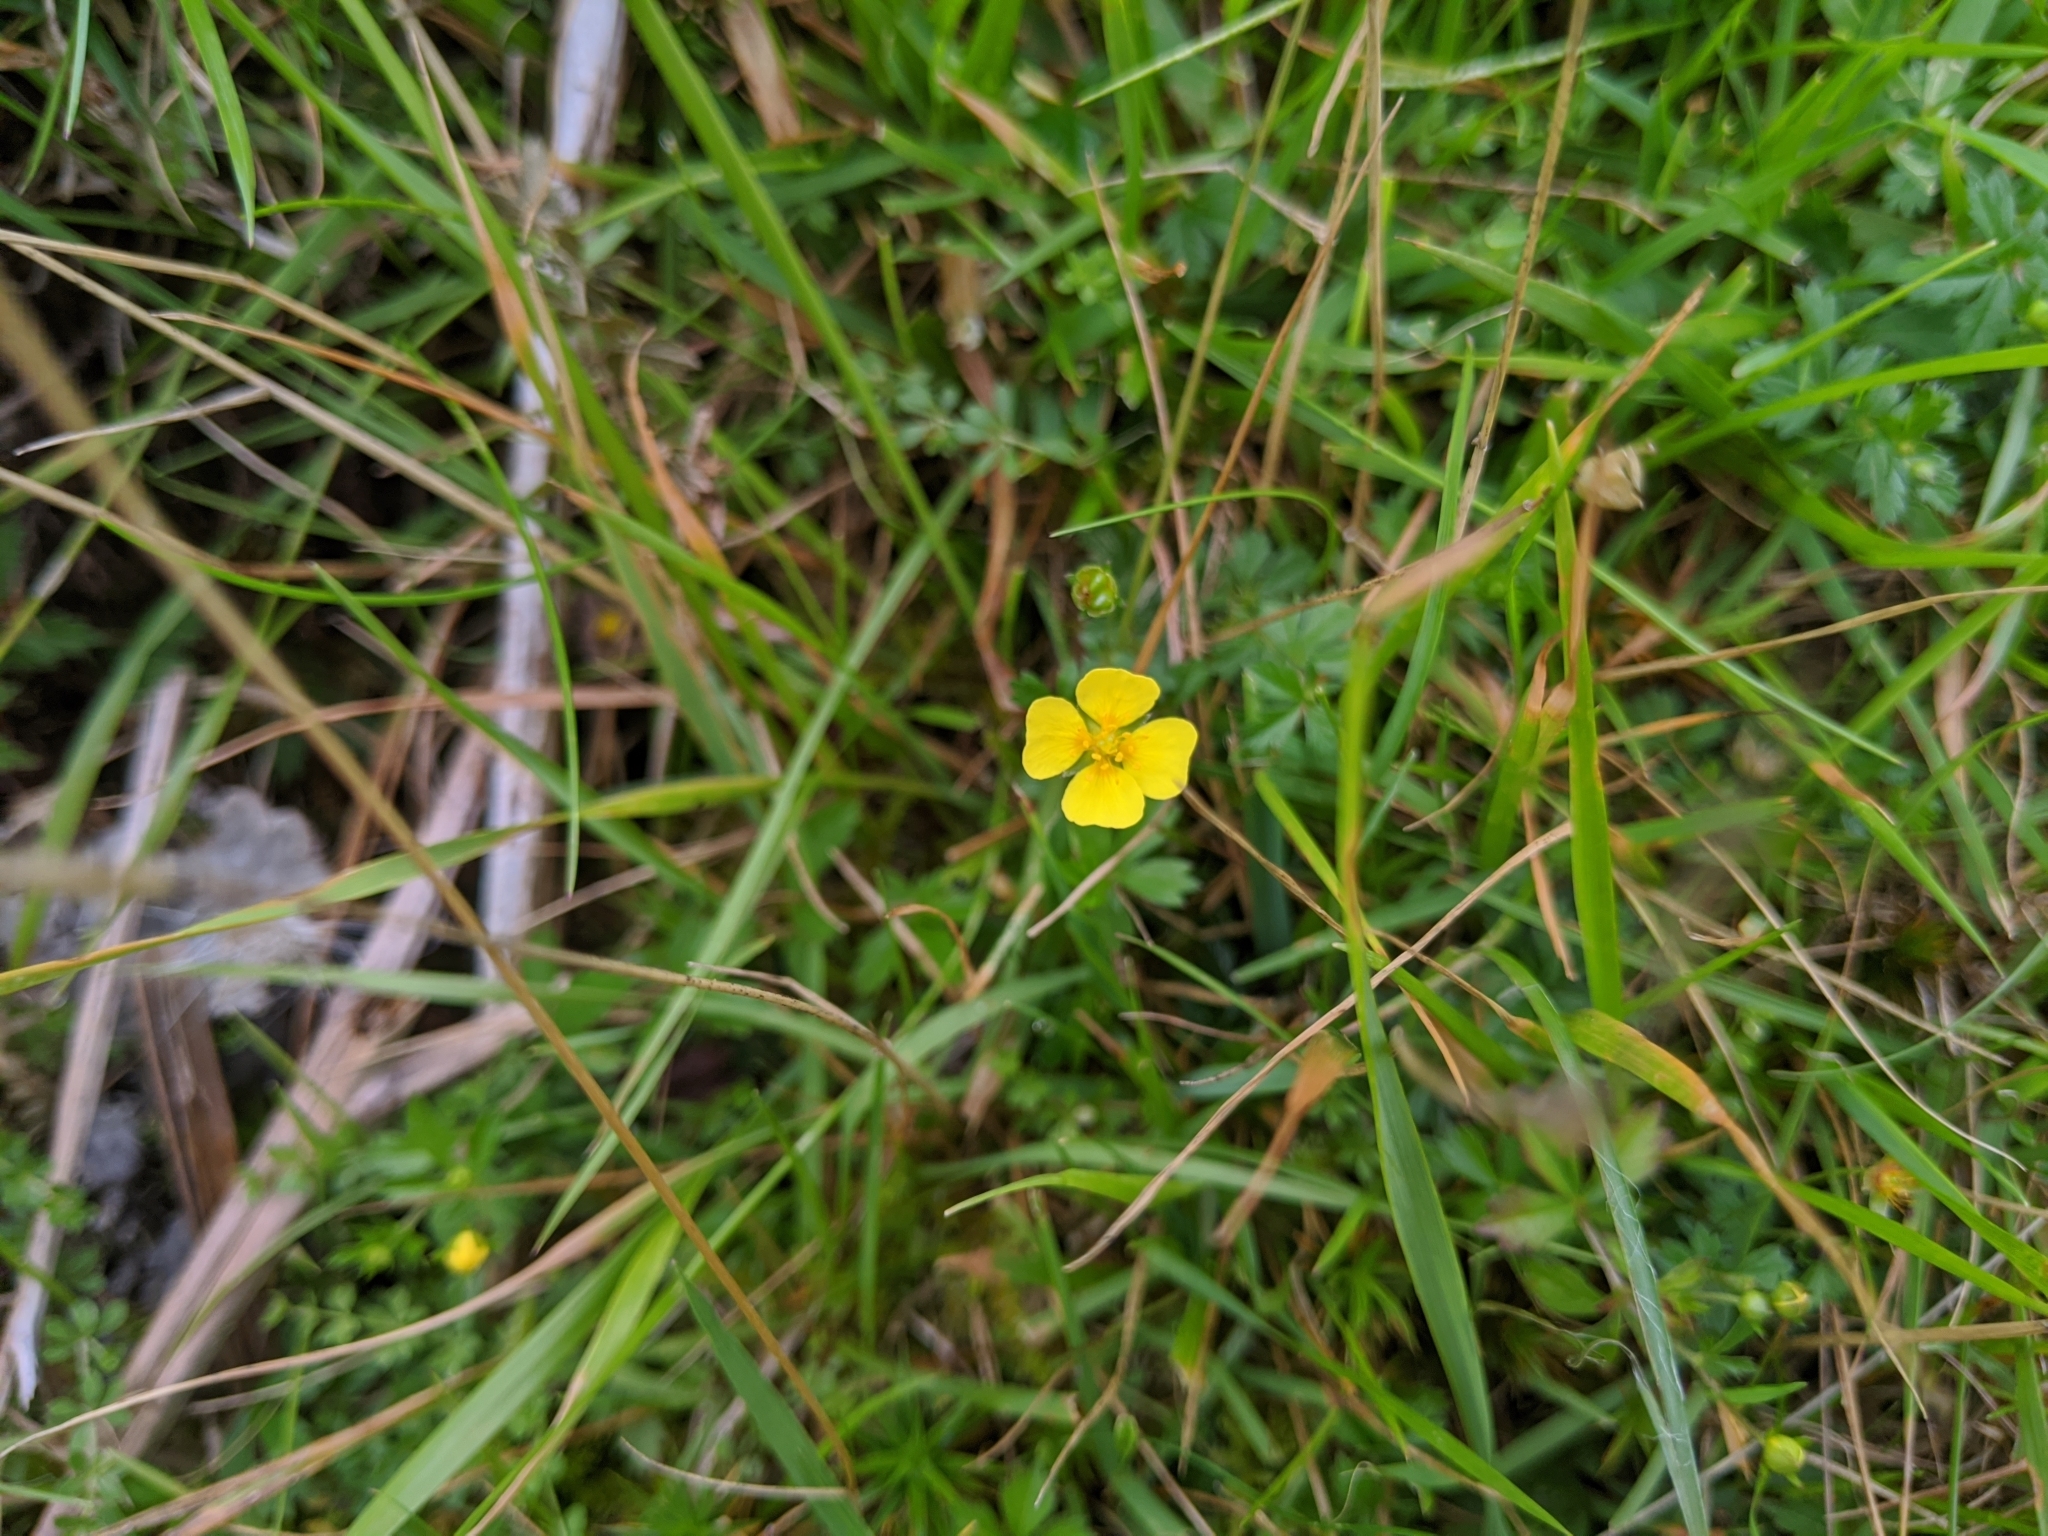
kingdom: Plantae
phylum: Tracheophyta
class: Magnoliopsida
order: Rosales
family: Rosaceae
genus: Potentilla
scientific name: Potentilla erecta
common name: Tormentil
